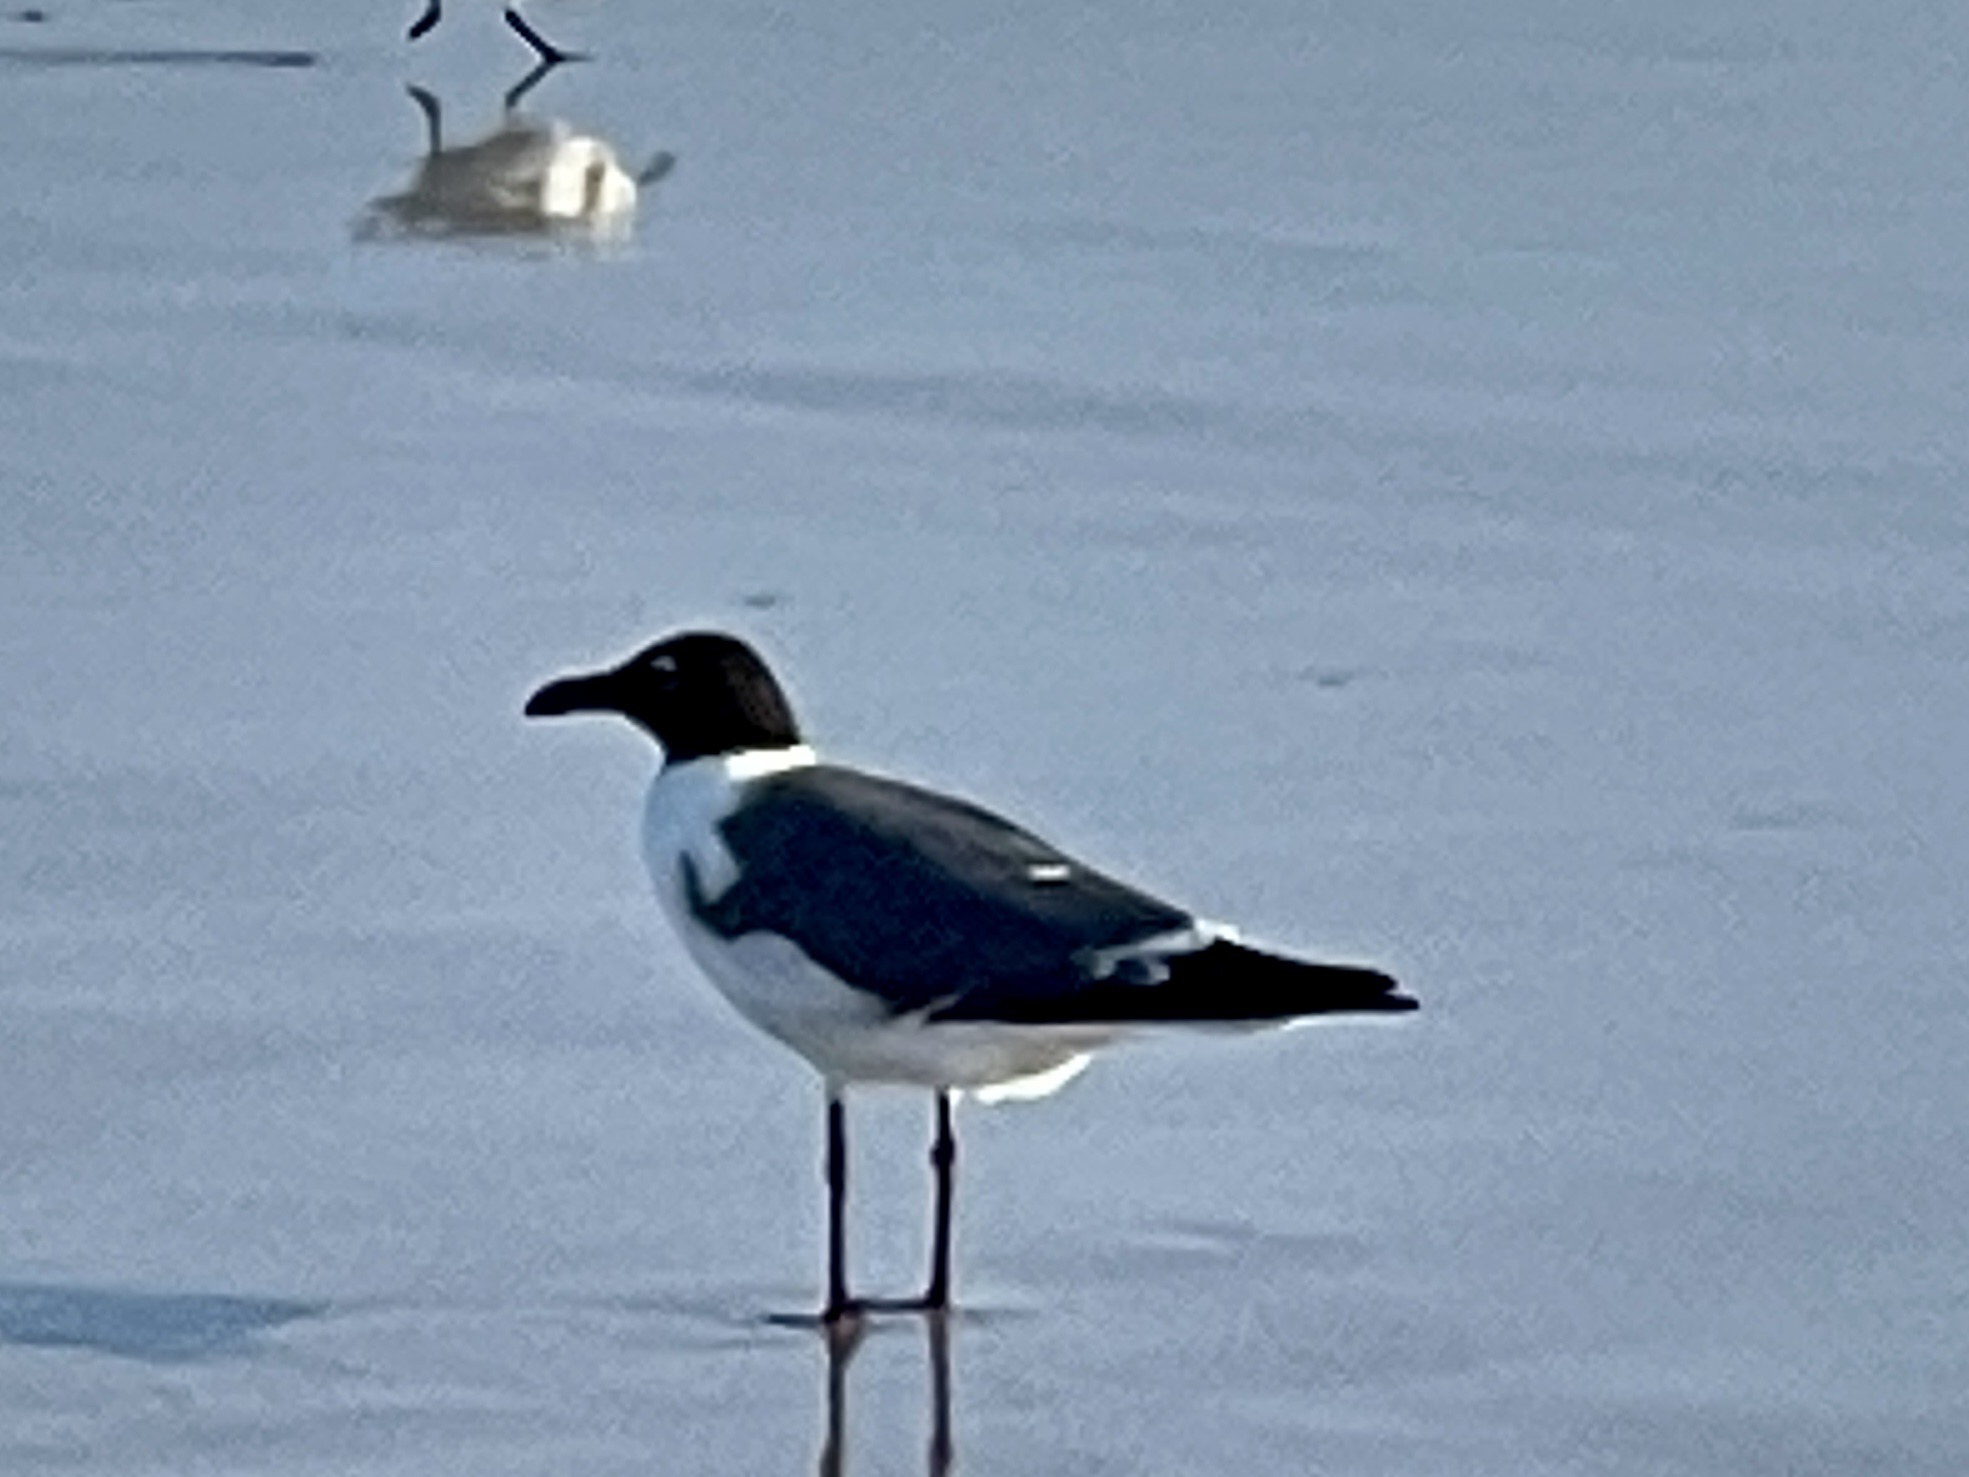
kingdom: Animalia
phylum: Chordata
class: Aves
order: Charadriiformes
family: Laridae
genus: Leucophaeus
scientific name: Leucophaeus atricilla
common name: Laughing gull
